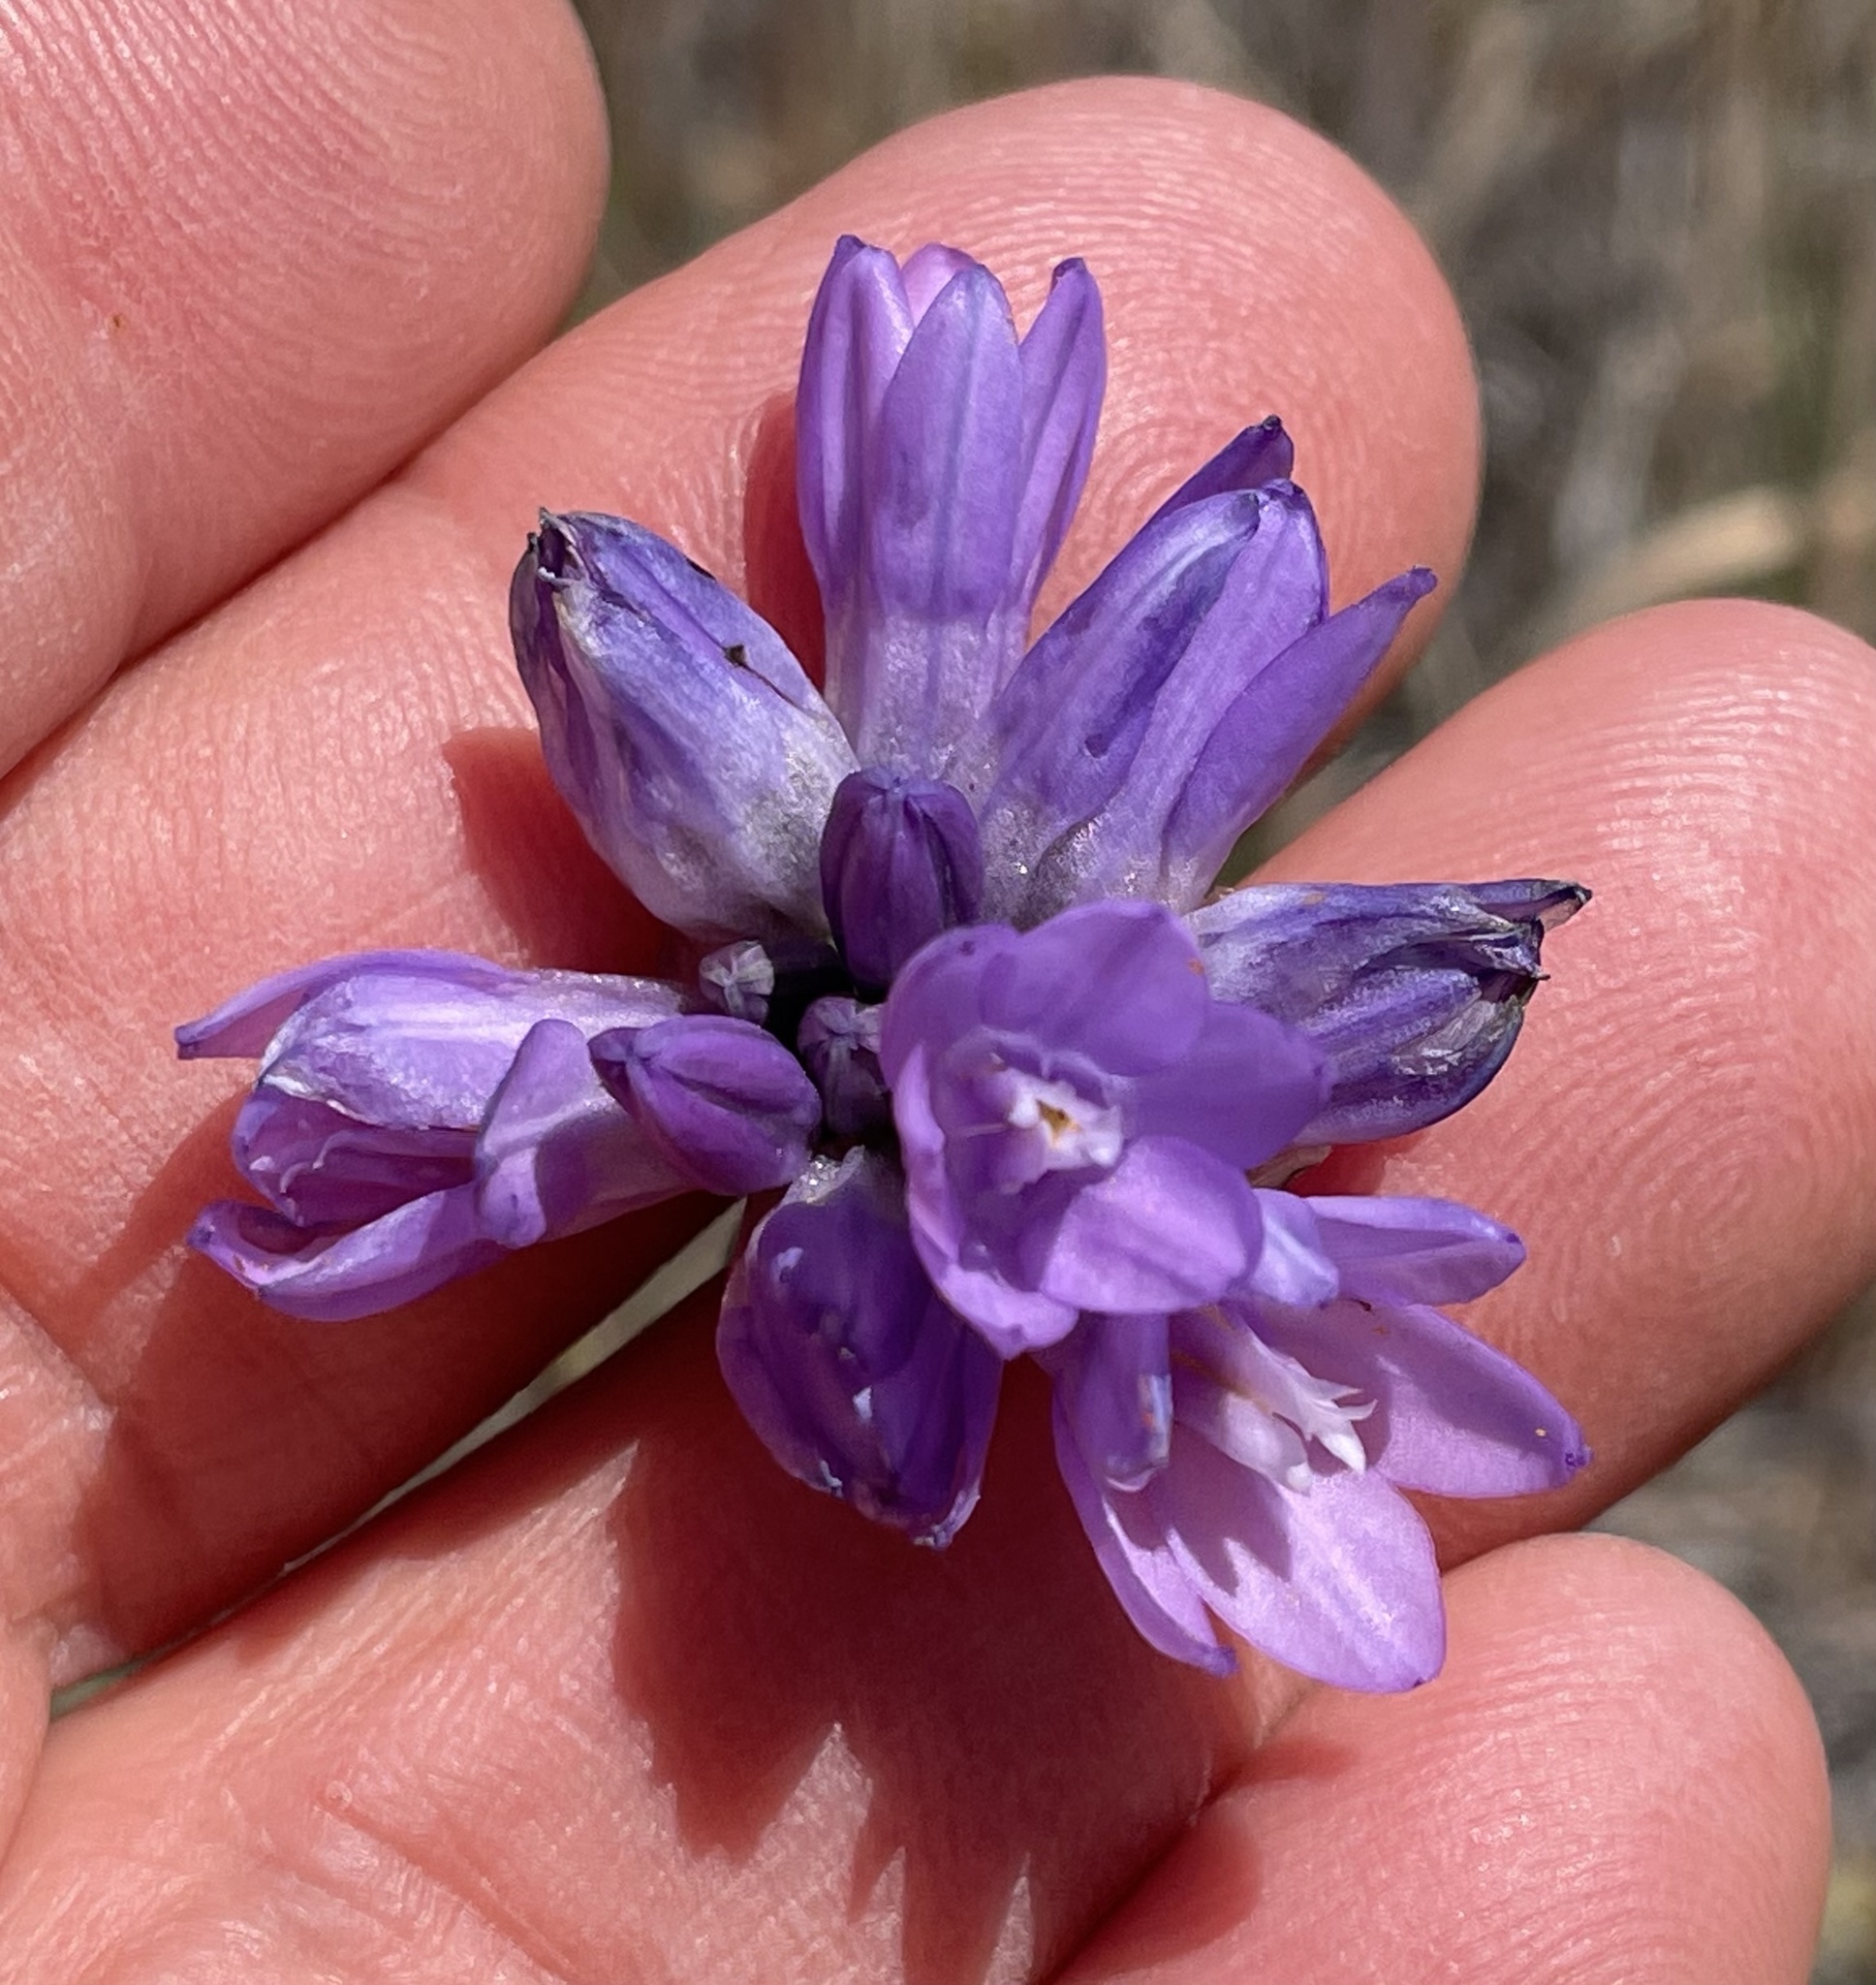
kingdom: Plantae
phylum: Tracheophyta
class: Liliopsida
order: Asparagales
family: Asparagaceae
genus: Dipterostemon
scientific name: Dipterostemon capitatus
